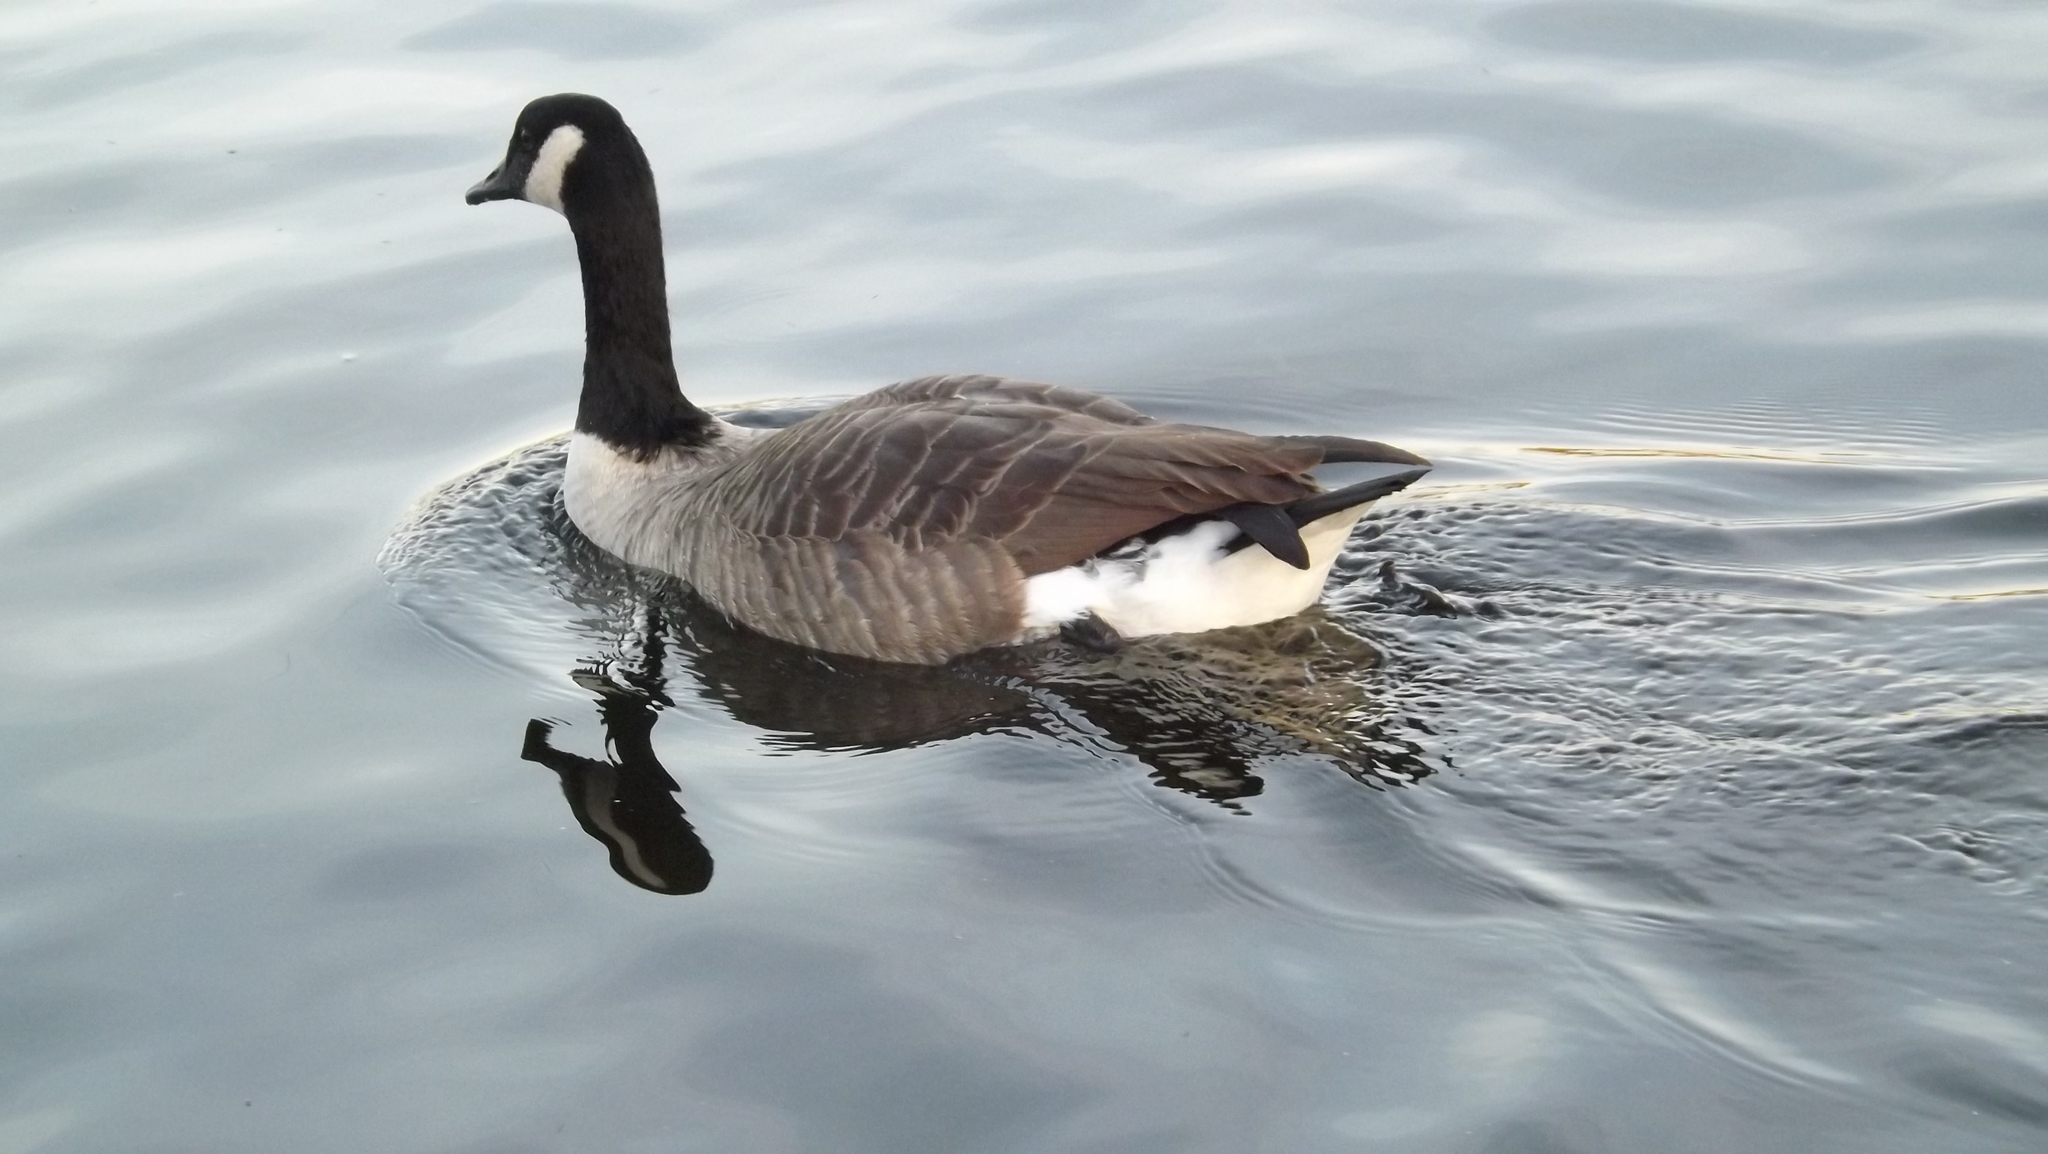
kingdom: Animalia
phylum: Chordata
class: Aves
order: Anseriformes
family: Anatidae
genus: Branta
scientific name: Branta canadensis
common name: Canada goose
